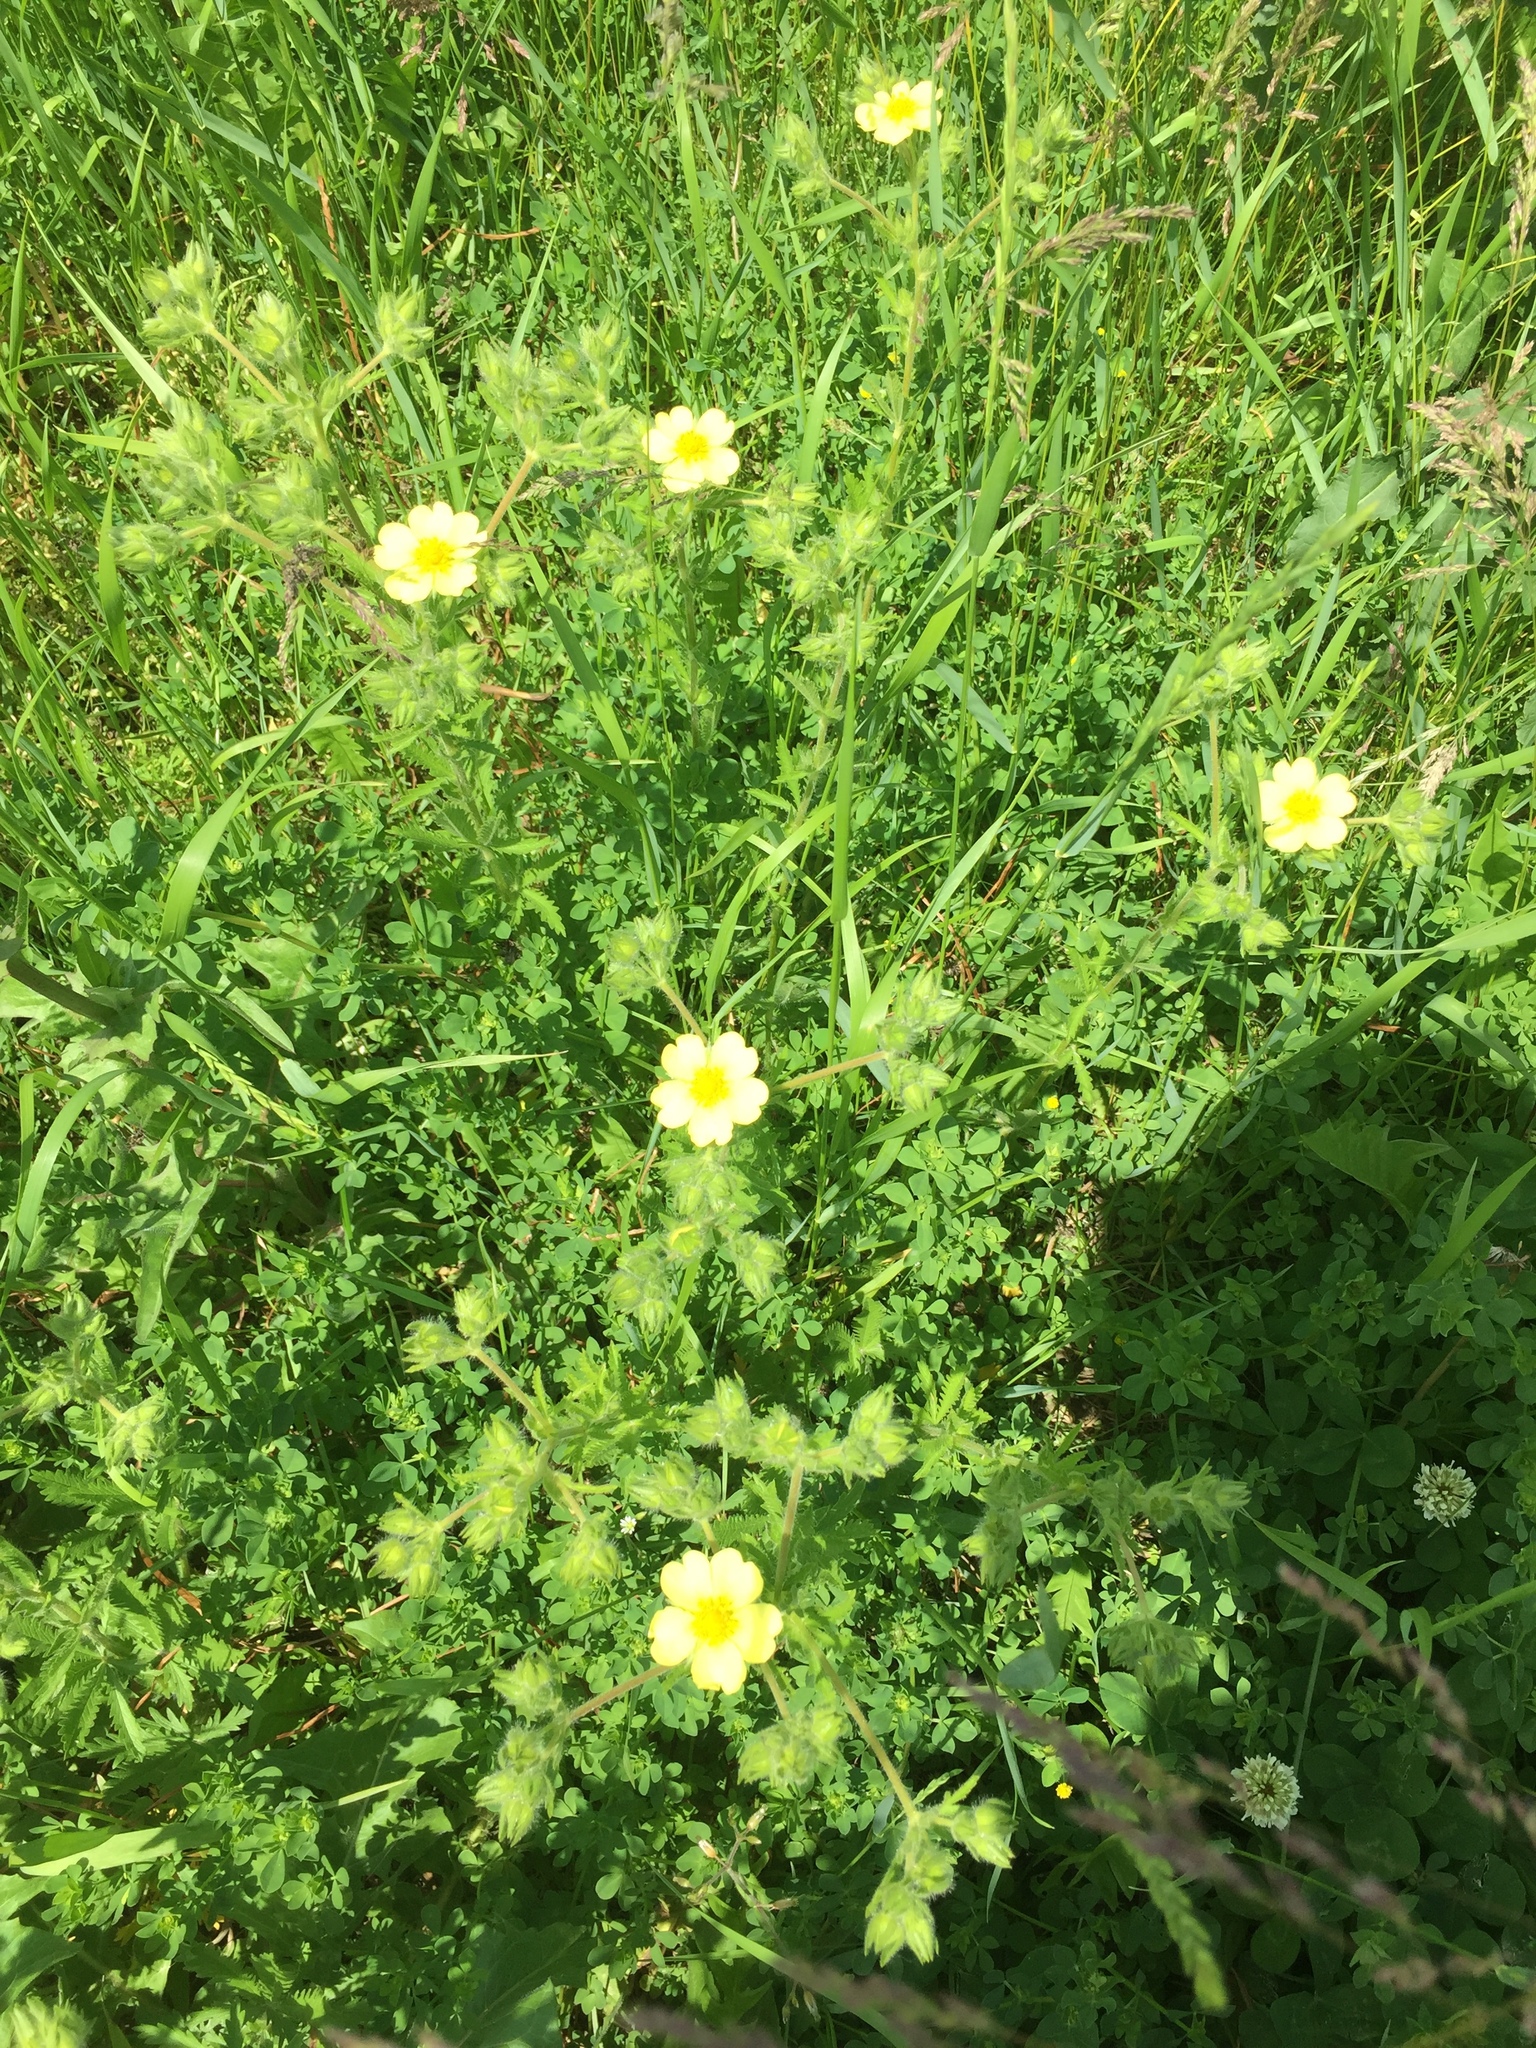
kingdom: Plantae
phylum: Tracheophyta
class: Magnoliopsida
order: Rosales
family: Rosaceae
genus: Potentilla
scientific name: Potentilla recta
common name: Sulphur cinquefoil
